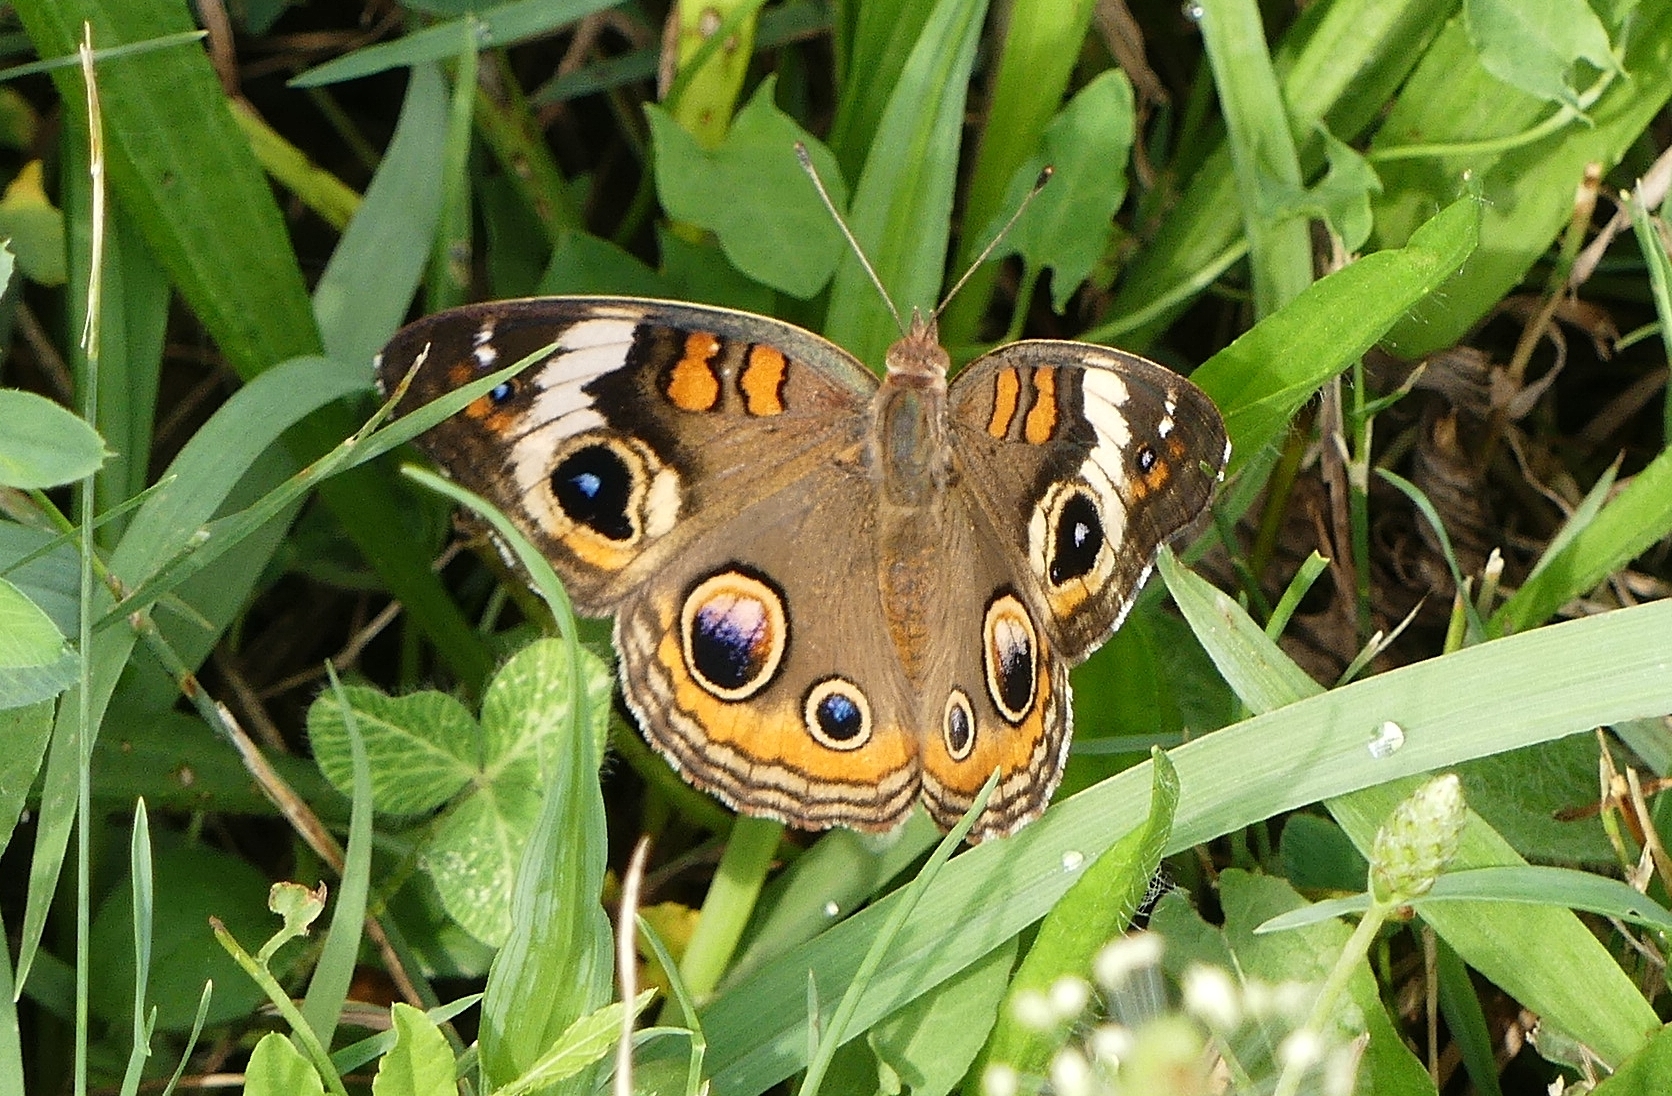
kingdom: Animalia
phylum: Arthropoda
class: Insecta
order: Lepidoptera
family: Nymphalidae
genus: Junonia
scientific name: Junonia coenia
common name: Common buckeye
